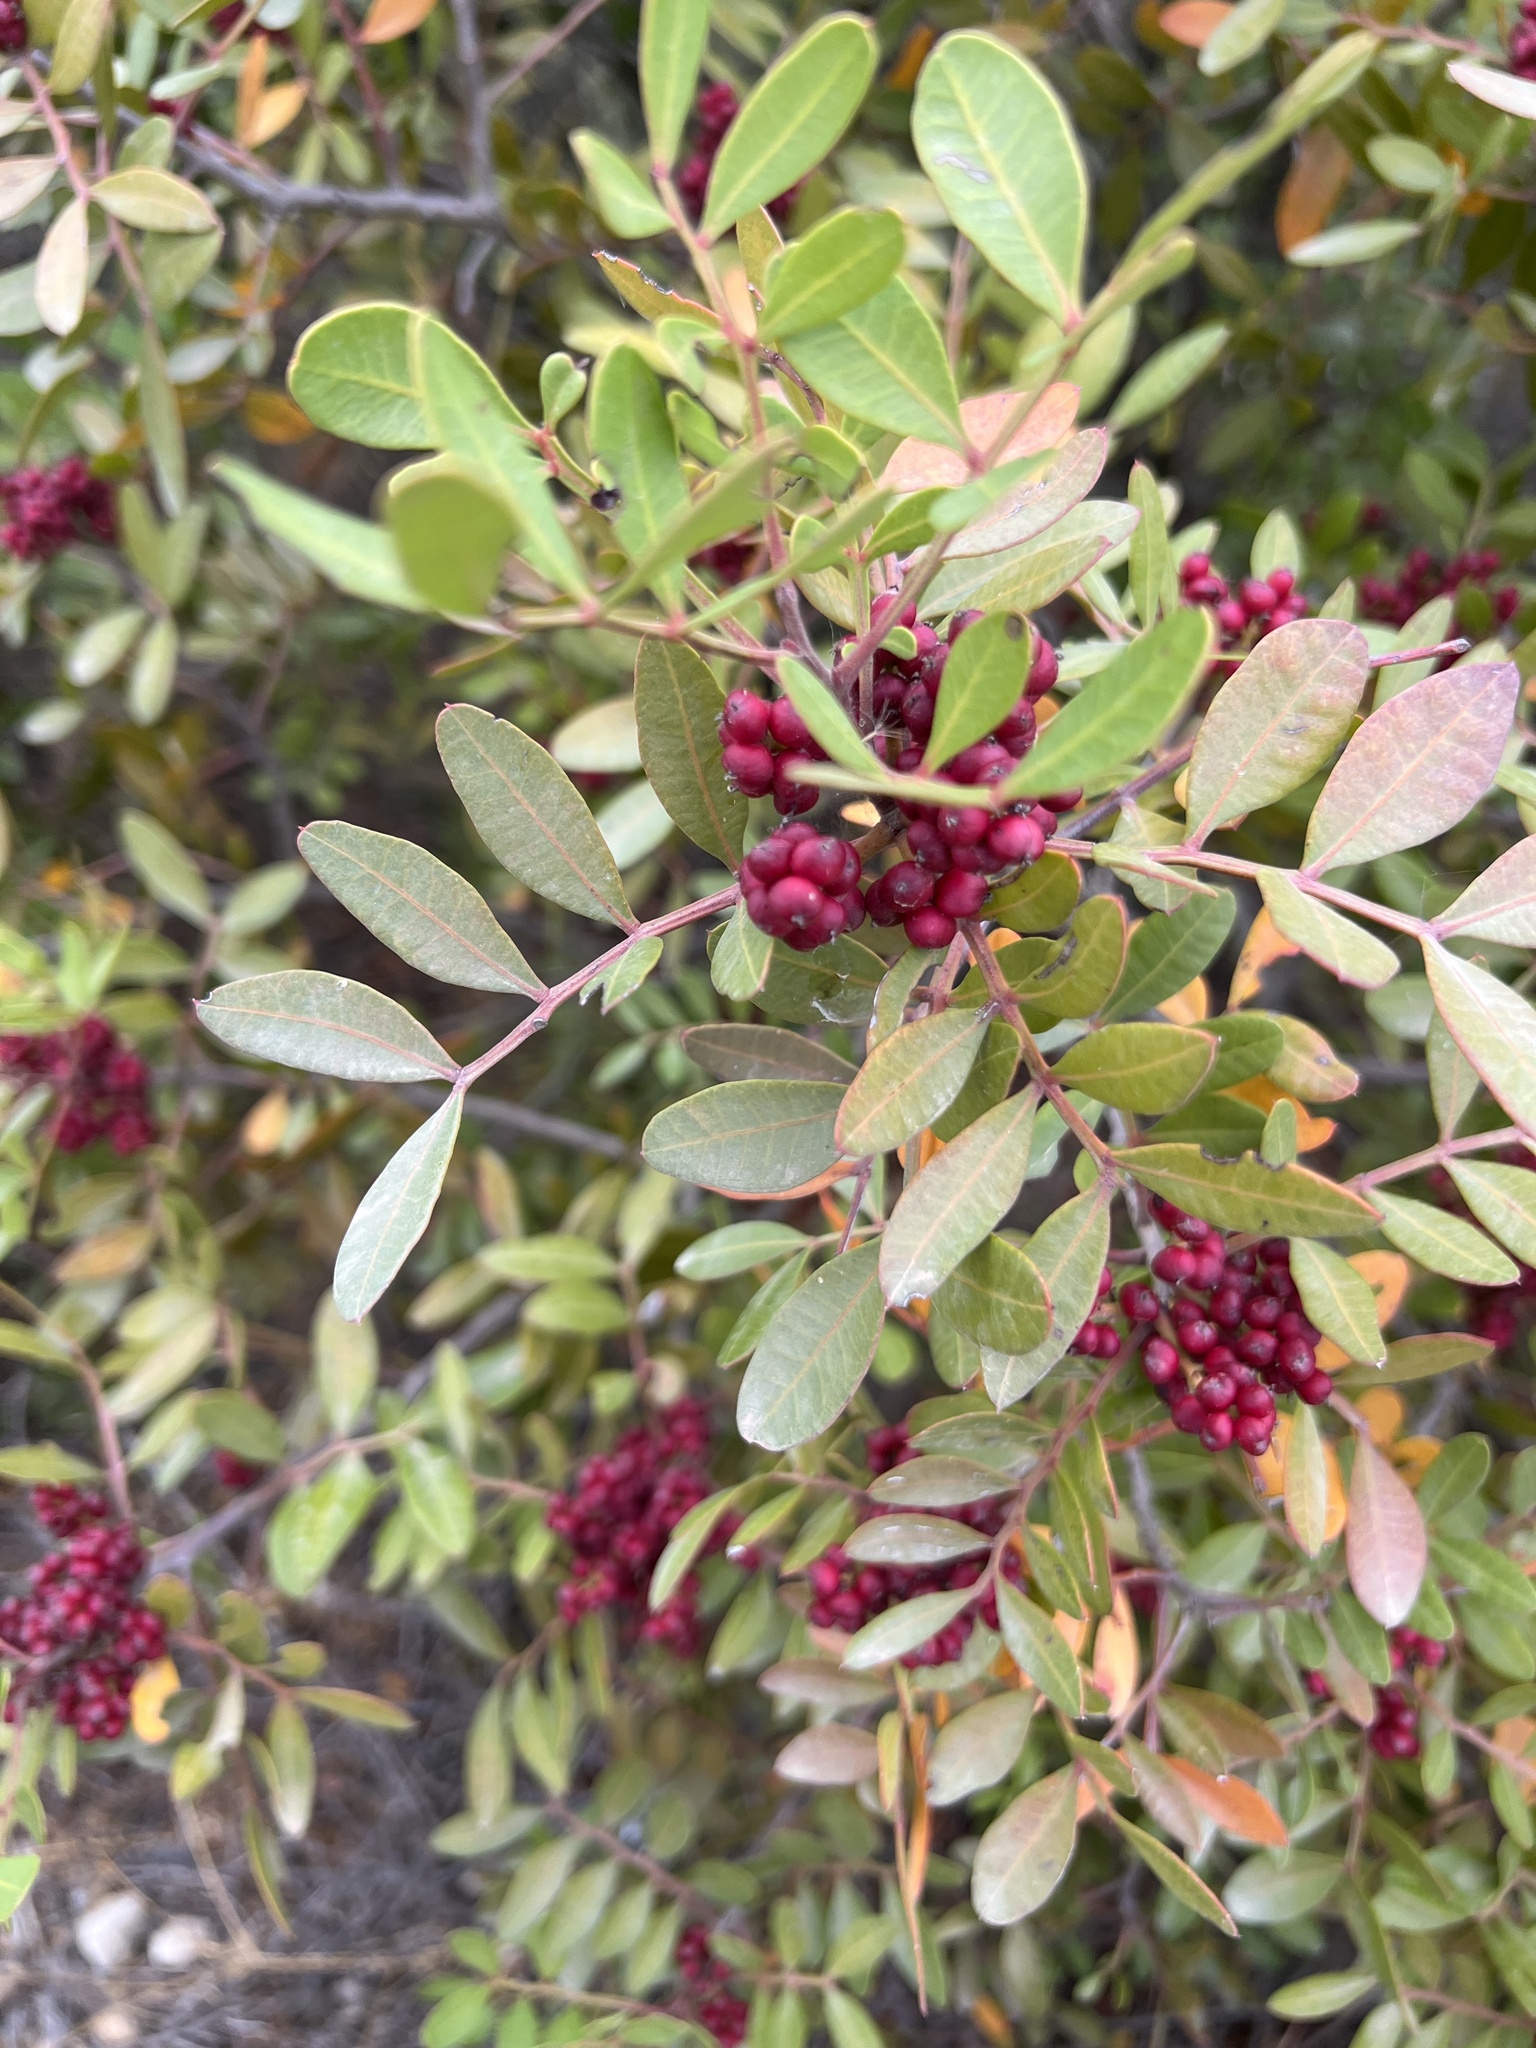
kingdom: Plantae
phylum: Tracheophyta
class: Magnoliopsida
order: Sapindales
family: Anacardiaceae
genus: Pistacia
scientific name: Pistacia lentiscus
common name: Lentisk
